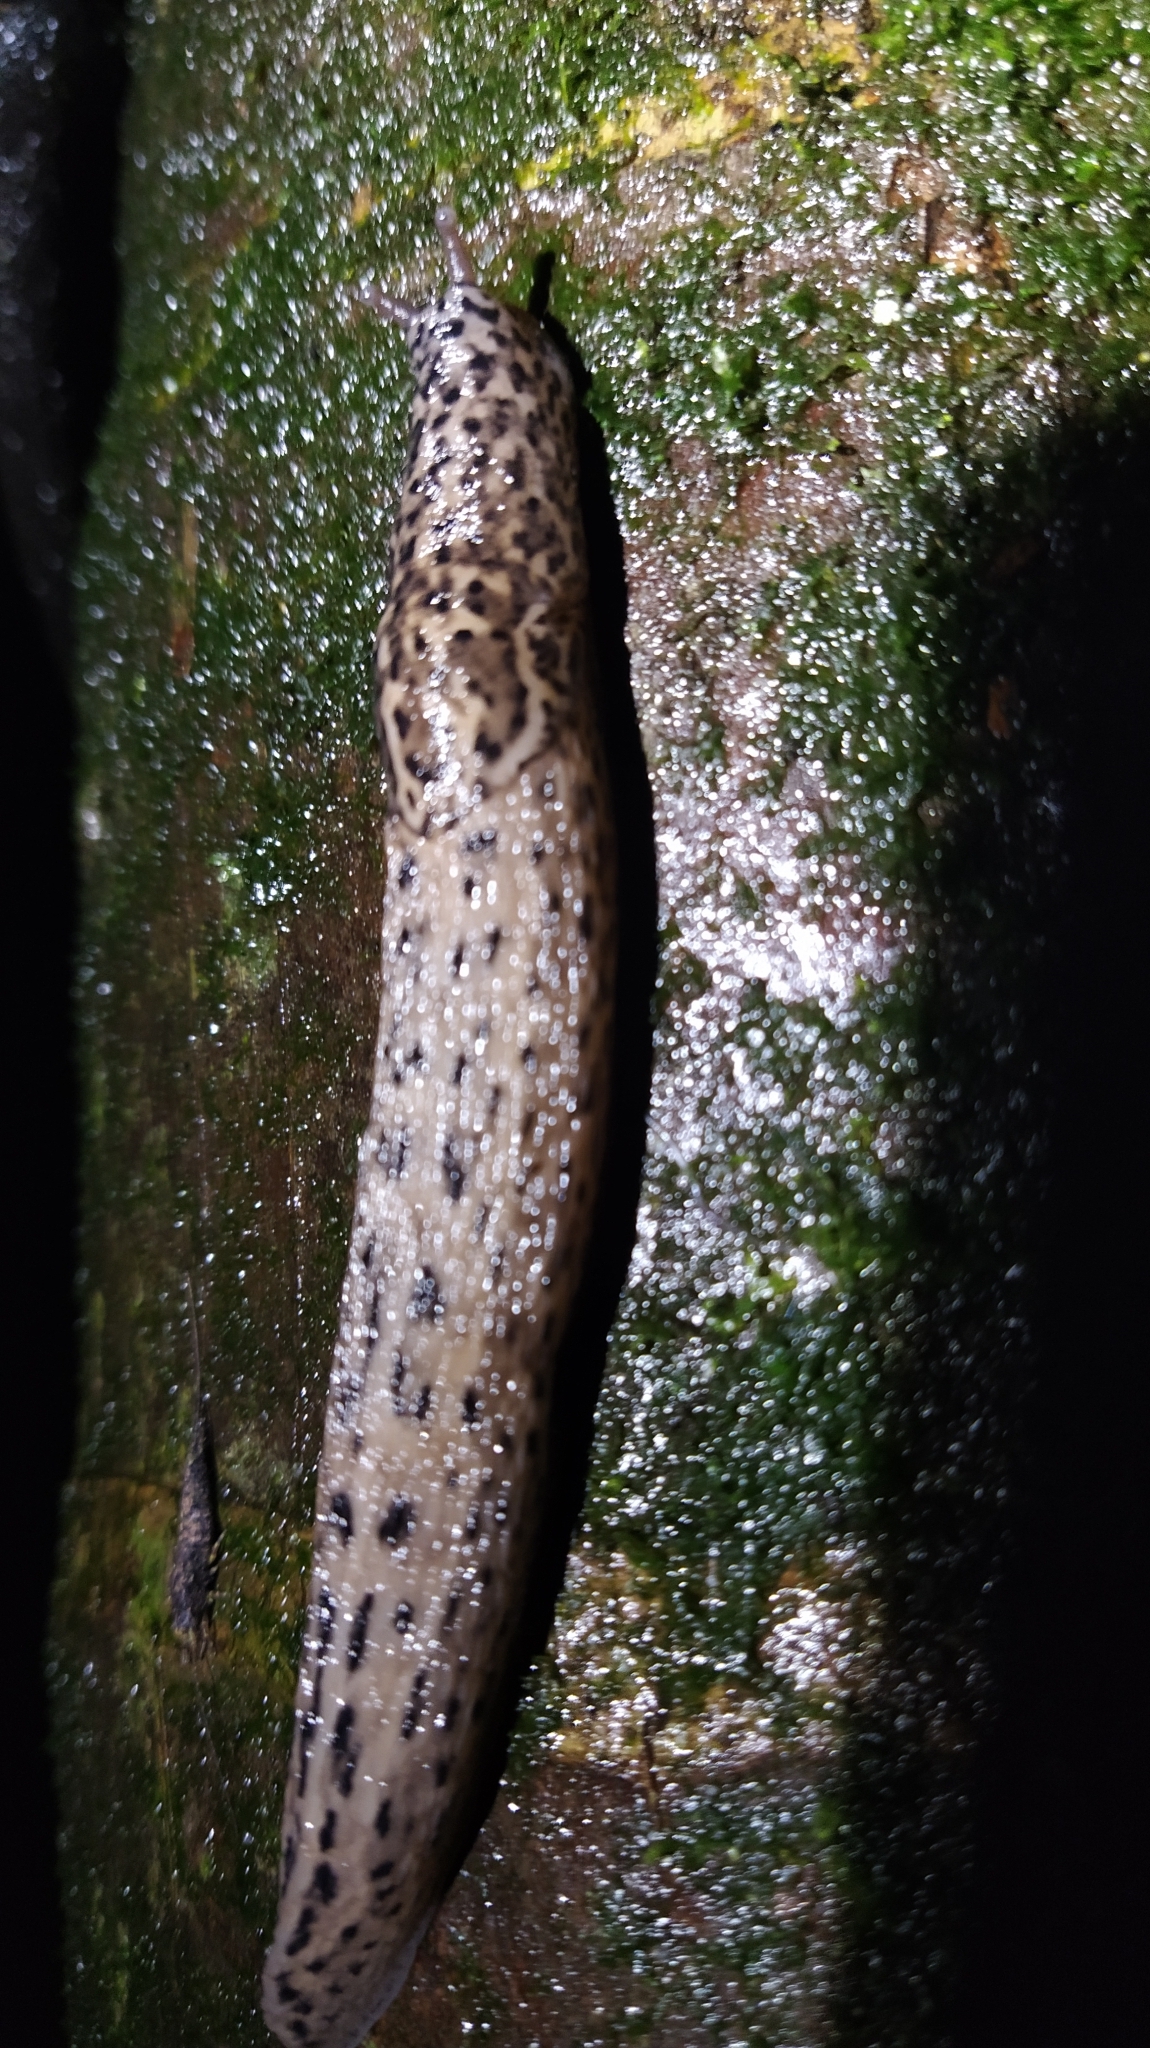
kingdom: Animalia
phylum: Mollusca
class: Gastropoda
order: Stylommatophora
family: Limacidae
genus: Limax
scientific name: Limax maximus
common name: Great grey slug
